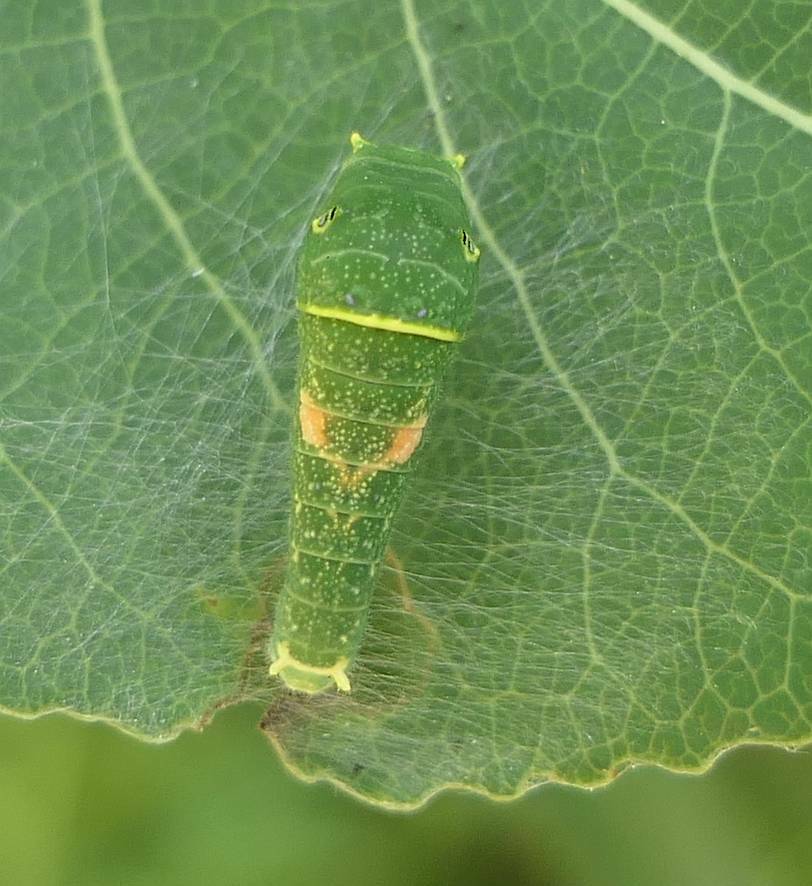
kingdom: Animalia
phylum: Arthropoda
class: Insecta
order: Lepidoptera
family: Papilionidae
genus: Papilio
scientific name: Papilio canadensis
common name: Canadian tiger swallowtail
